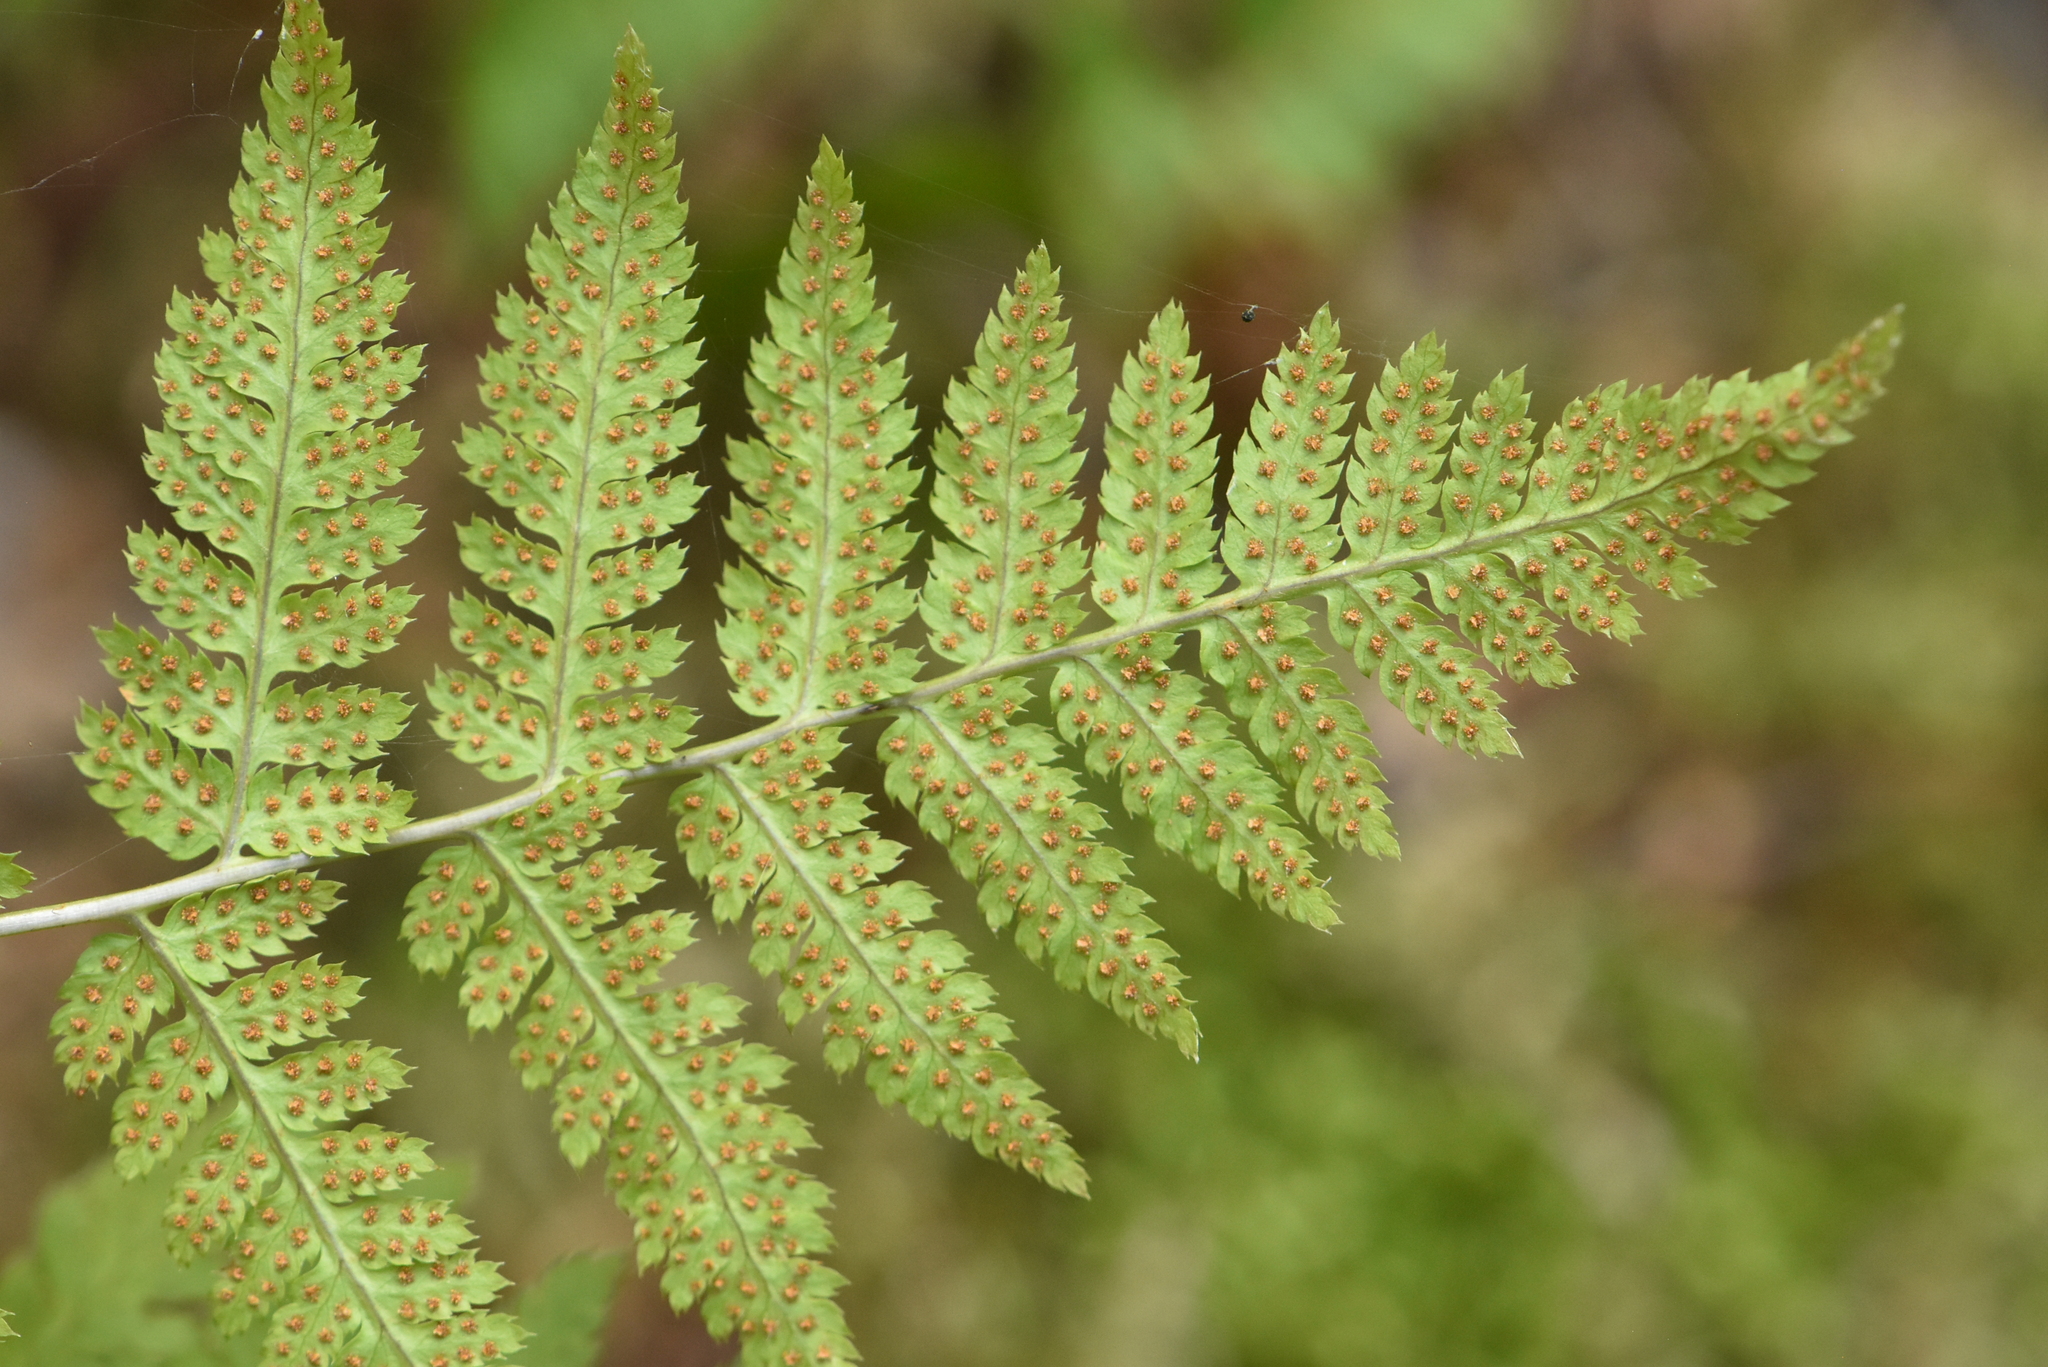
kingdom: Plantae
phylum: Tracheophyta
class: Polypodiopsida
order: Polypodiales
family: Dryopteridaceae
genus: Dryopteris
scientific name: Dryopteris carthusiana
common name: Narrow buckler-fern
